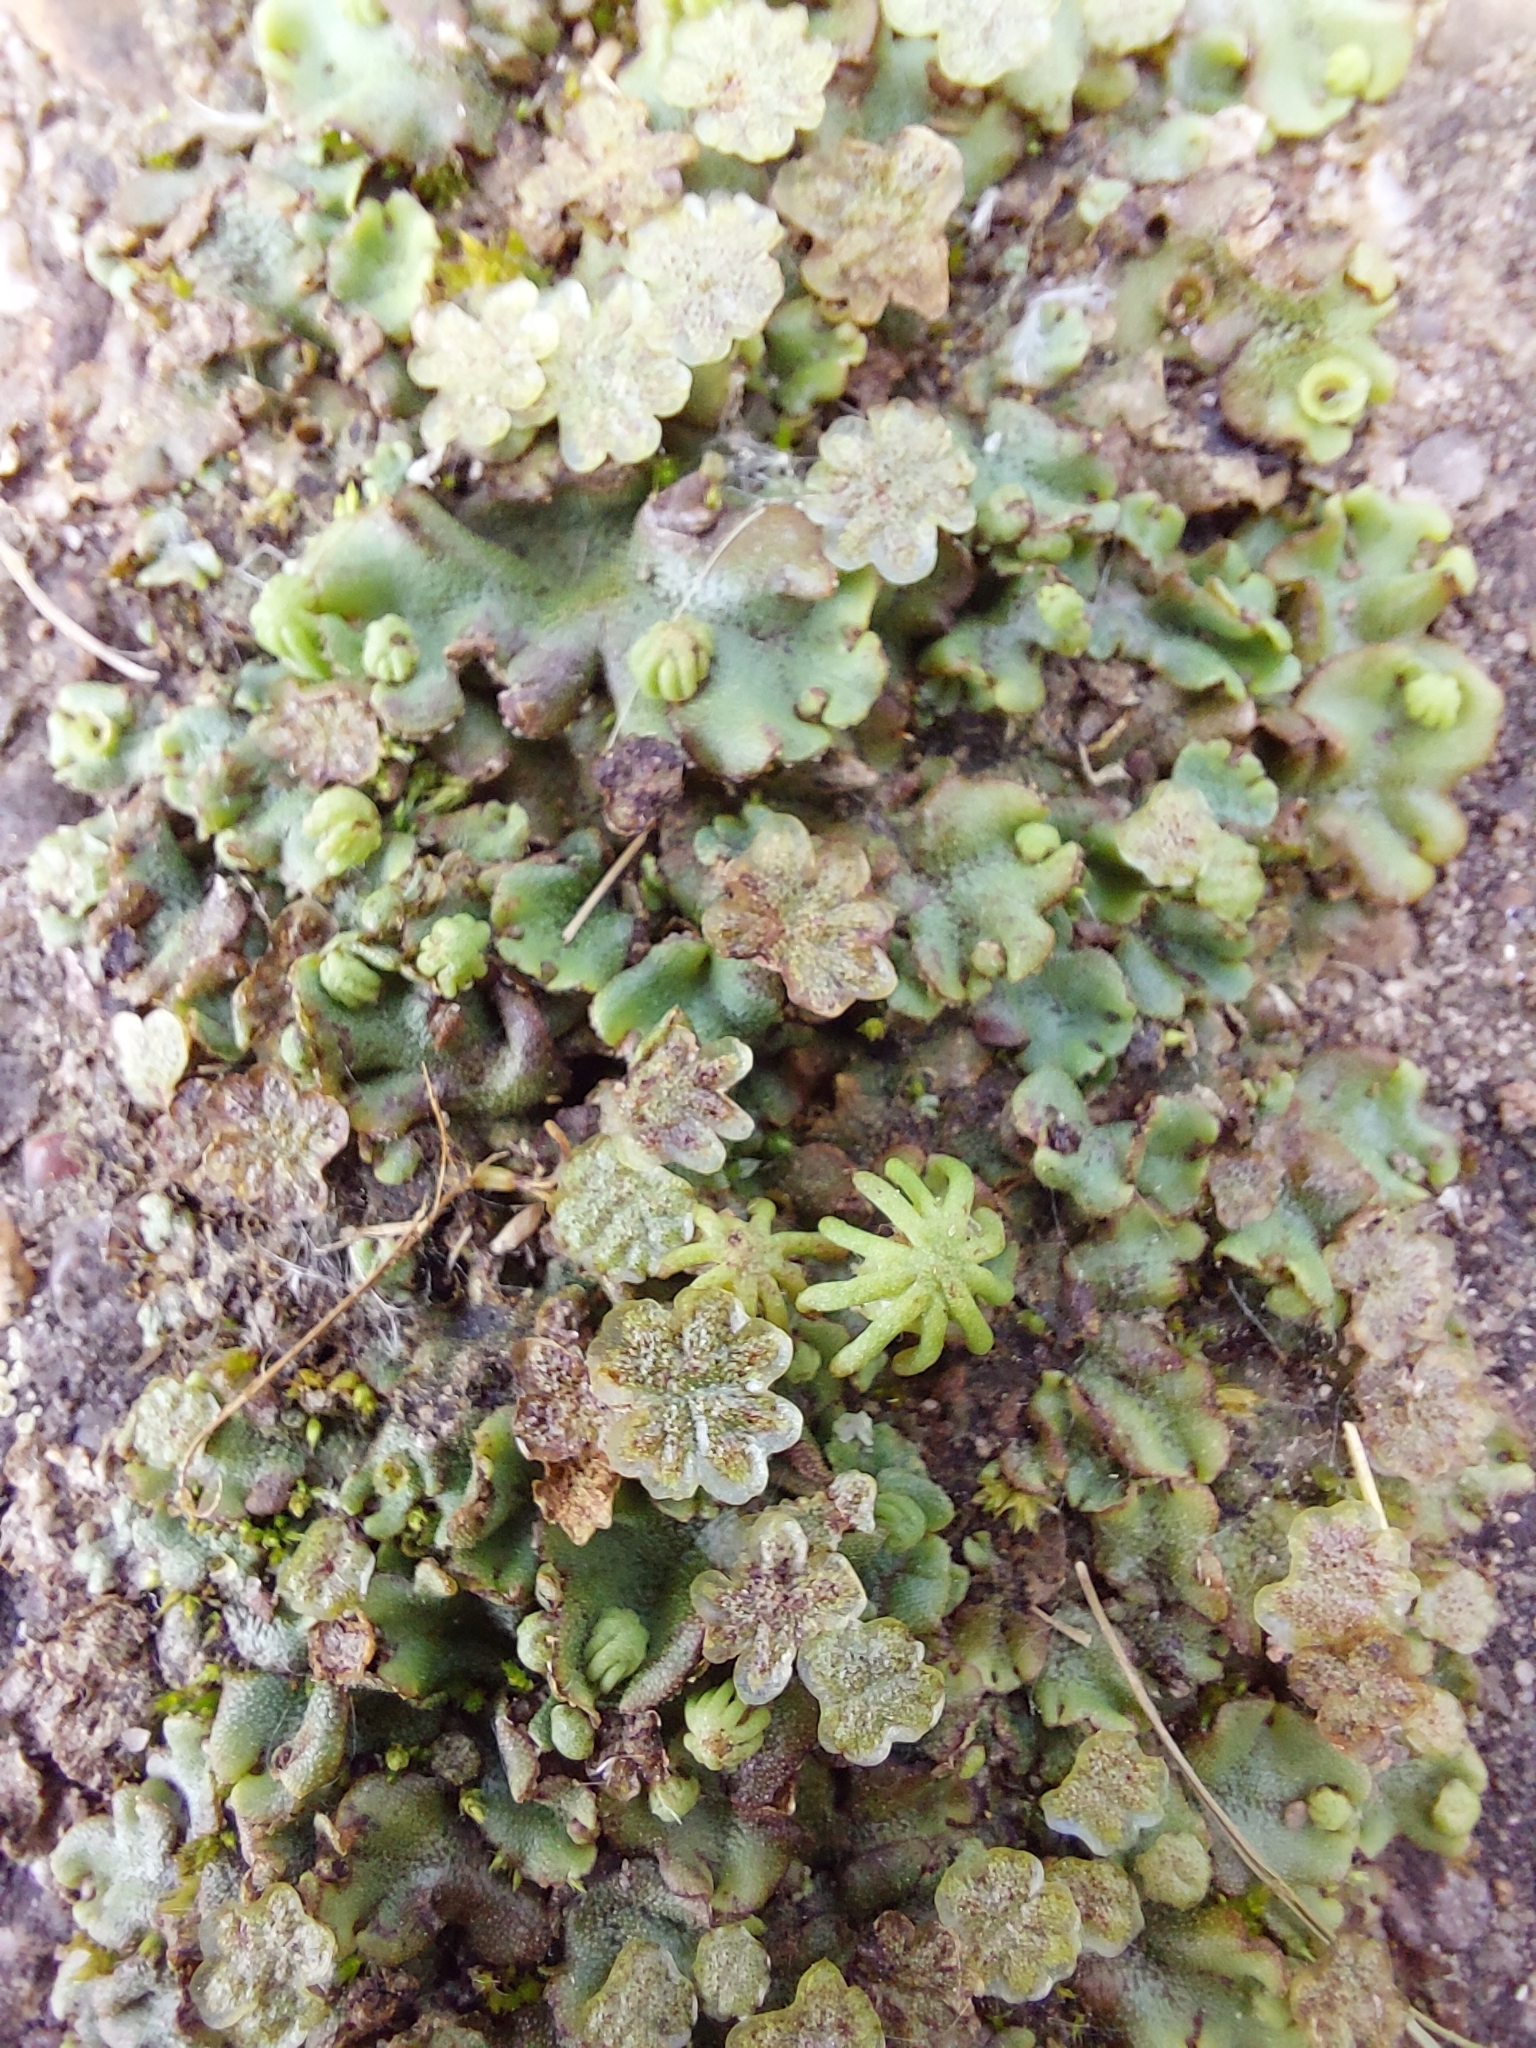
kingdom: Plantae
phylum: Marchantiophyta
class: Marchantiopsida
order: Marchantiales
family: Marchantiaceae
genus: Marchantia
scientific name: Marchantia polymorpha
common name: Common liverwort
